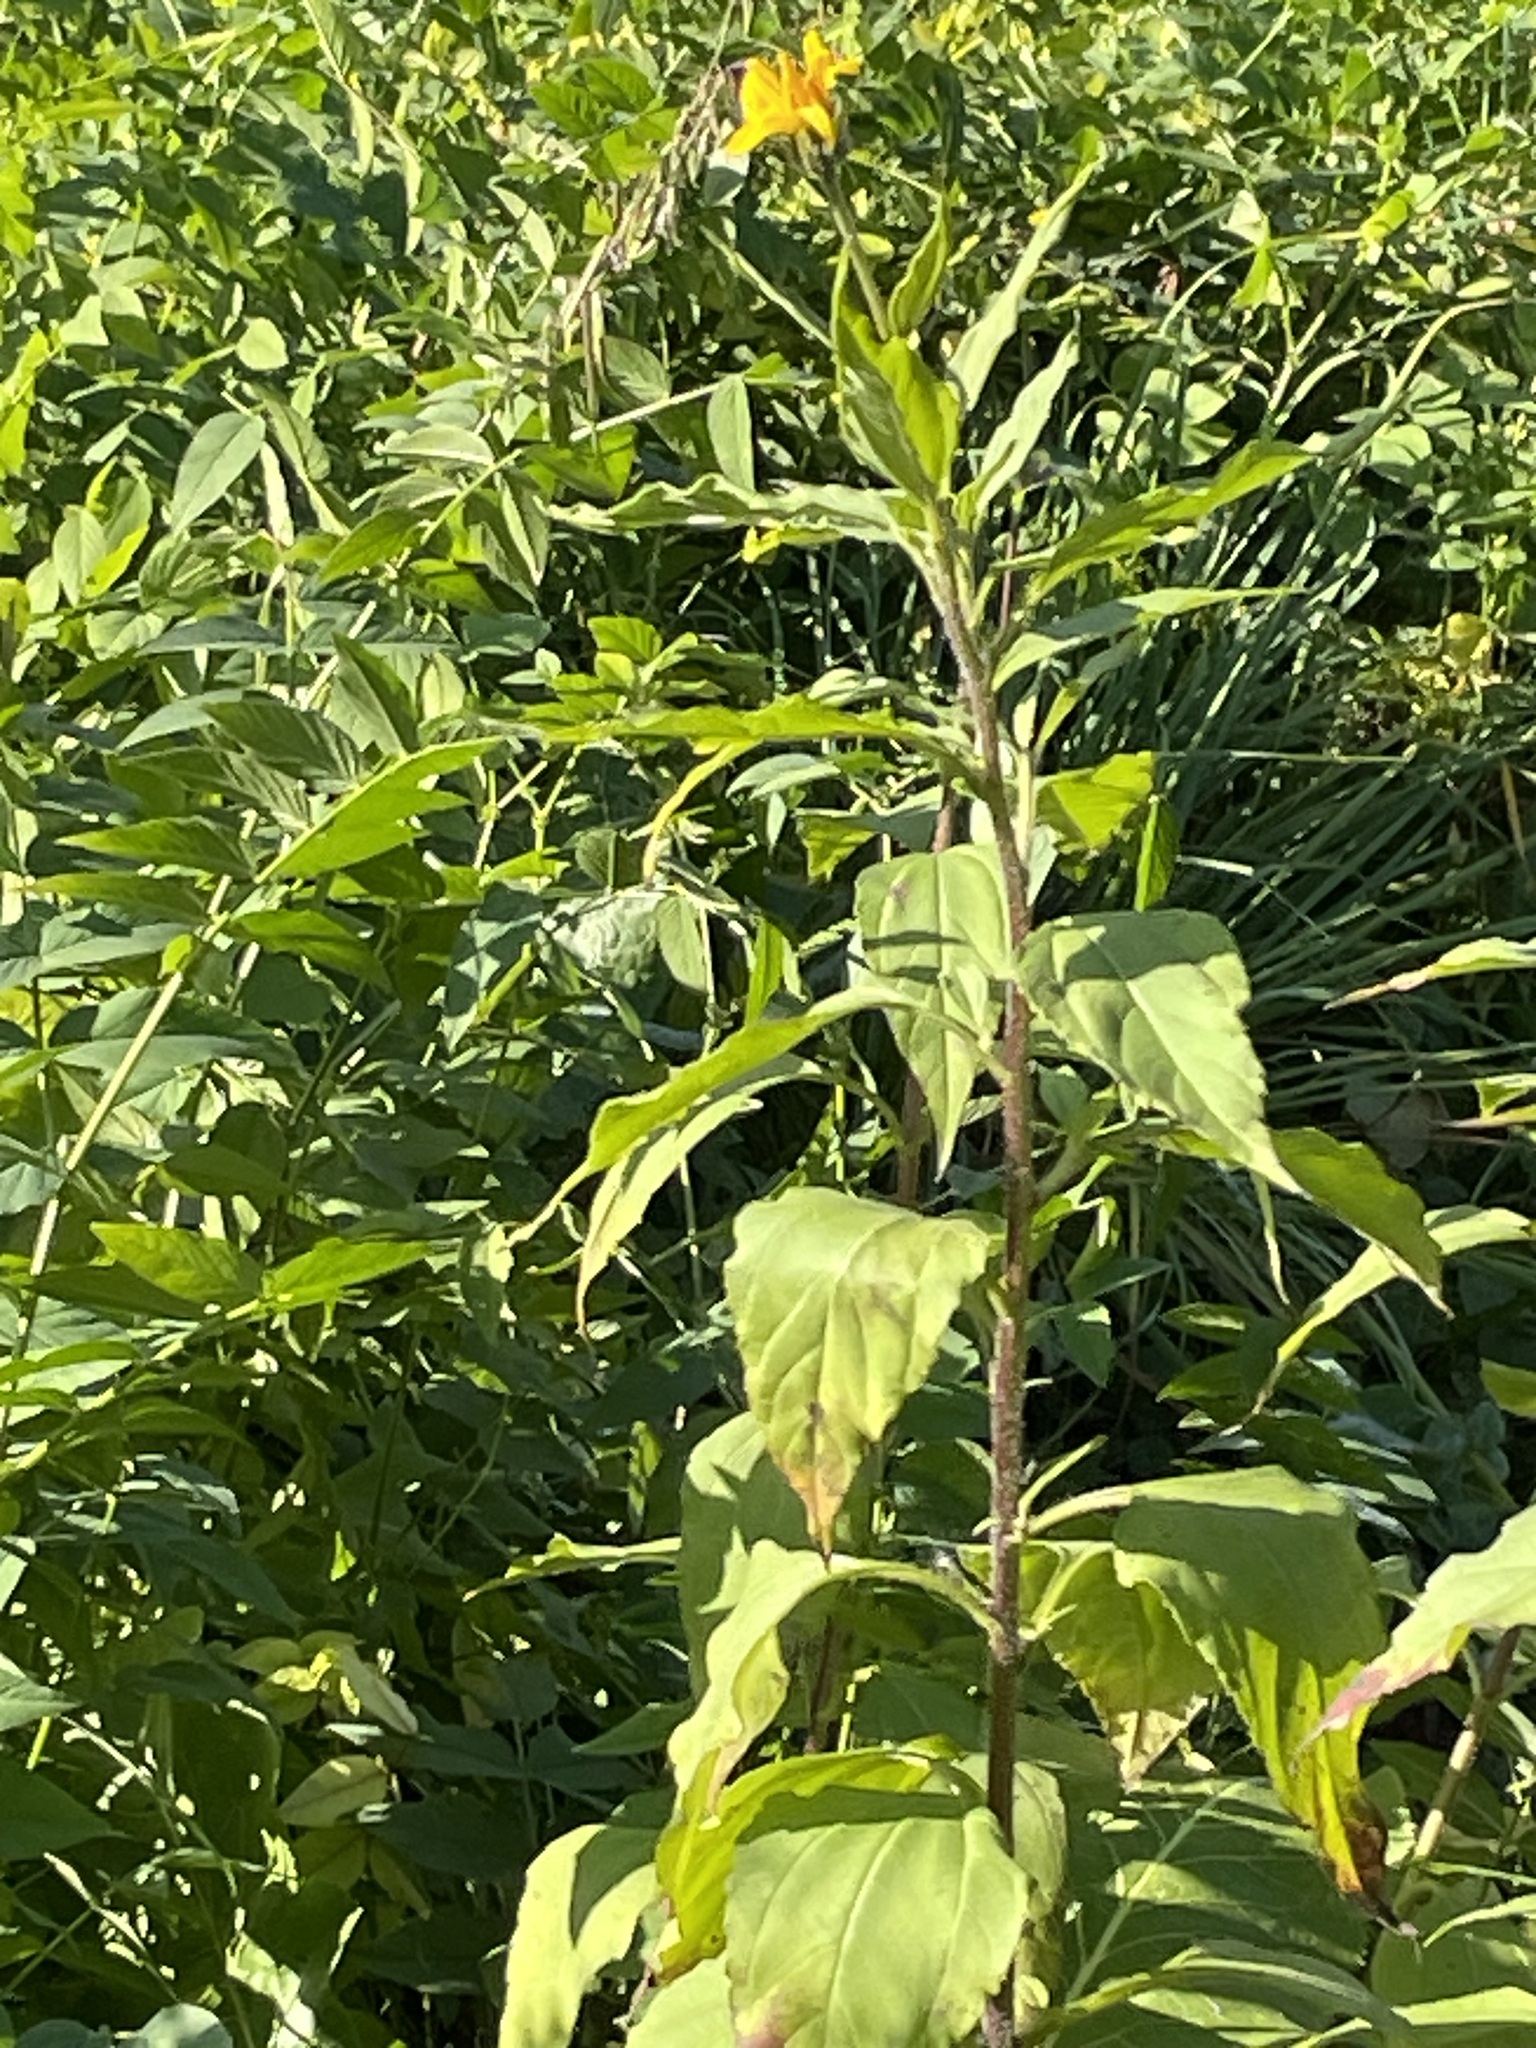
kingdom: Plantae
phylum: Tracheophyta
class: Magnoliopsida
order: Asterales
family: Asteraceae
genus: Helianthus
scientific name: Helianthus tuberosus
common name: Jerusalem artichoke
